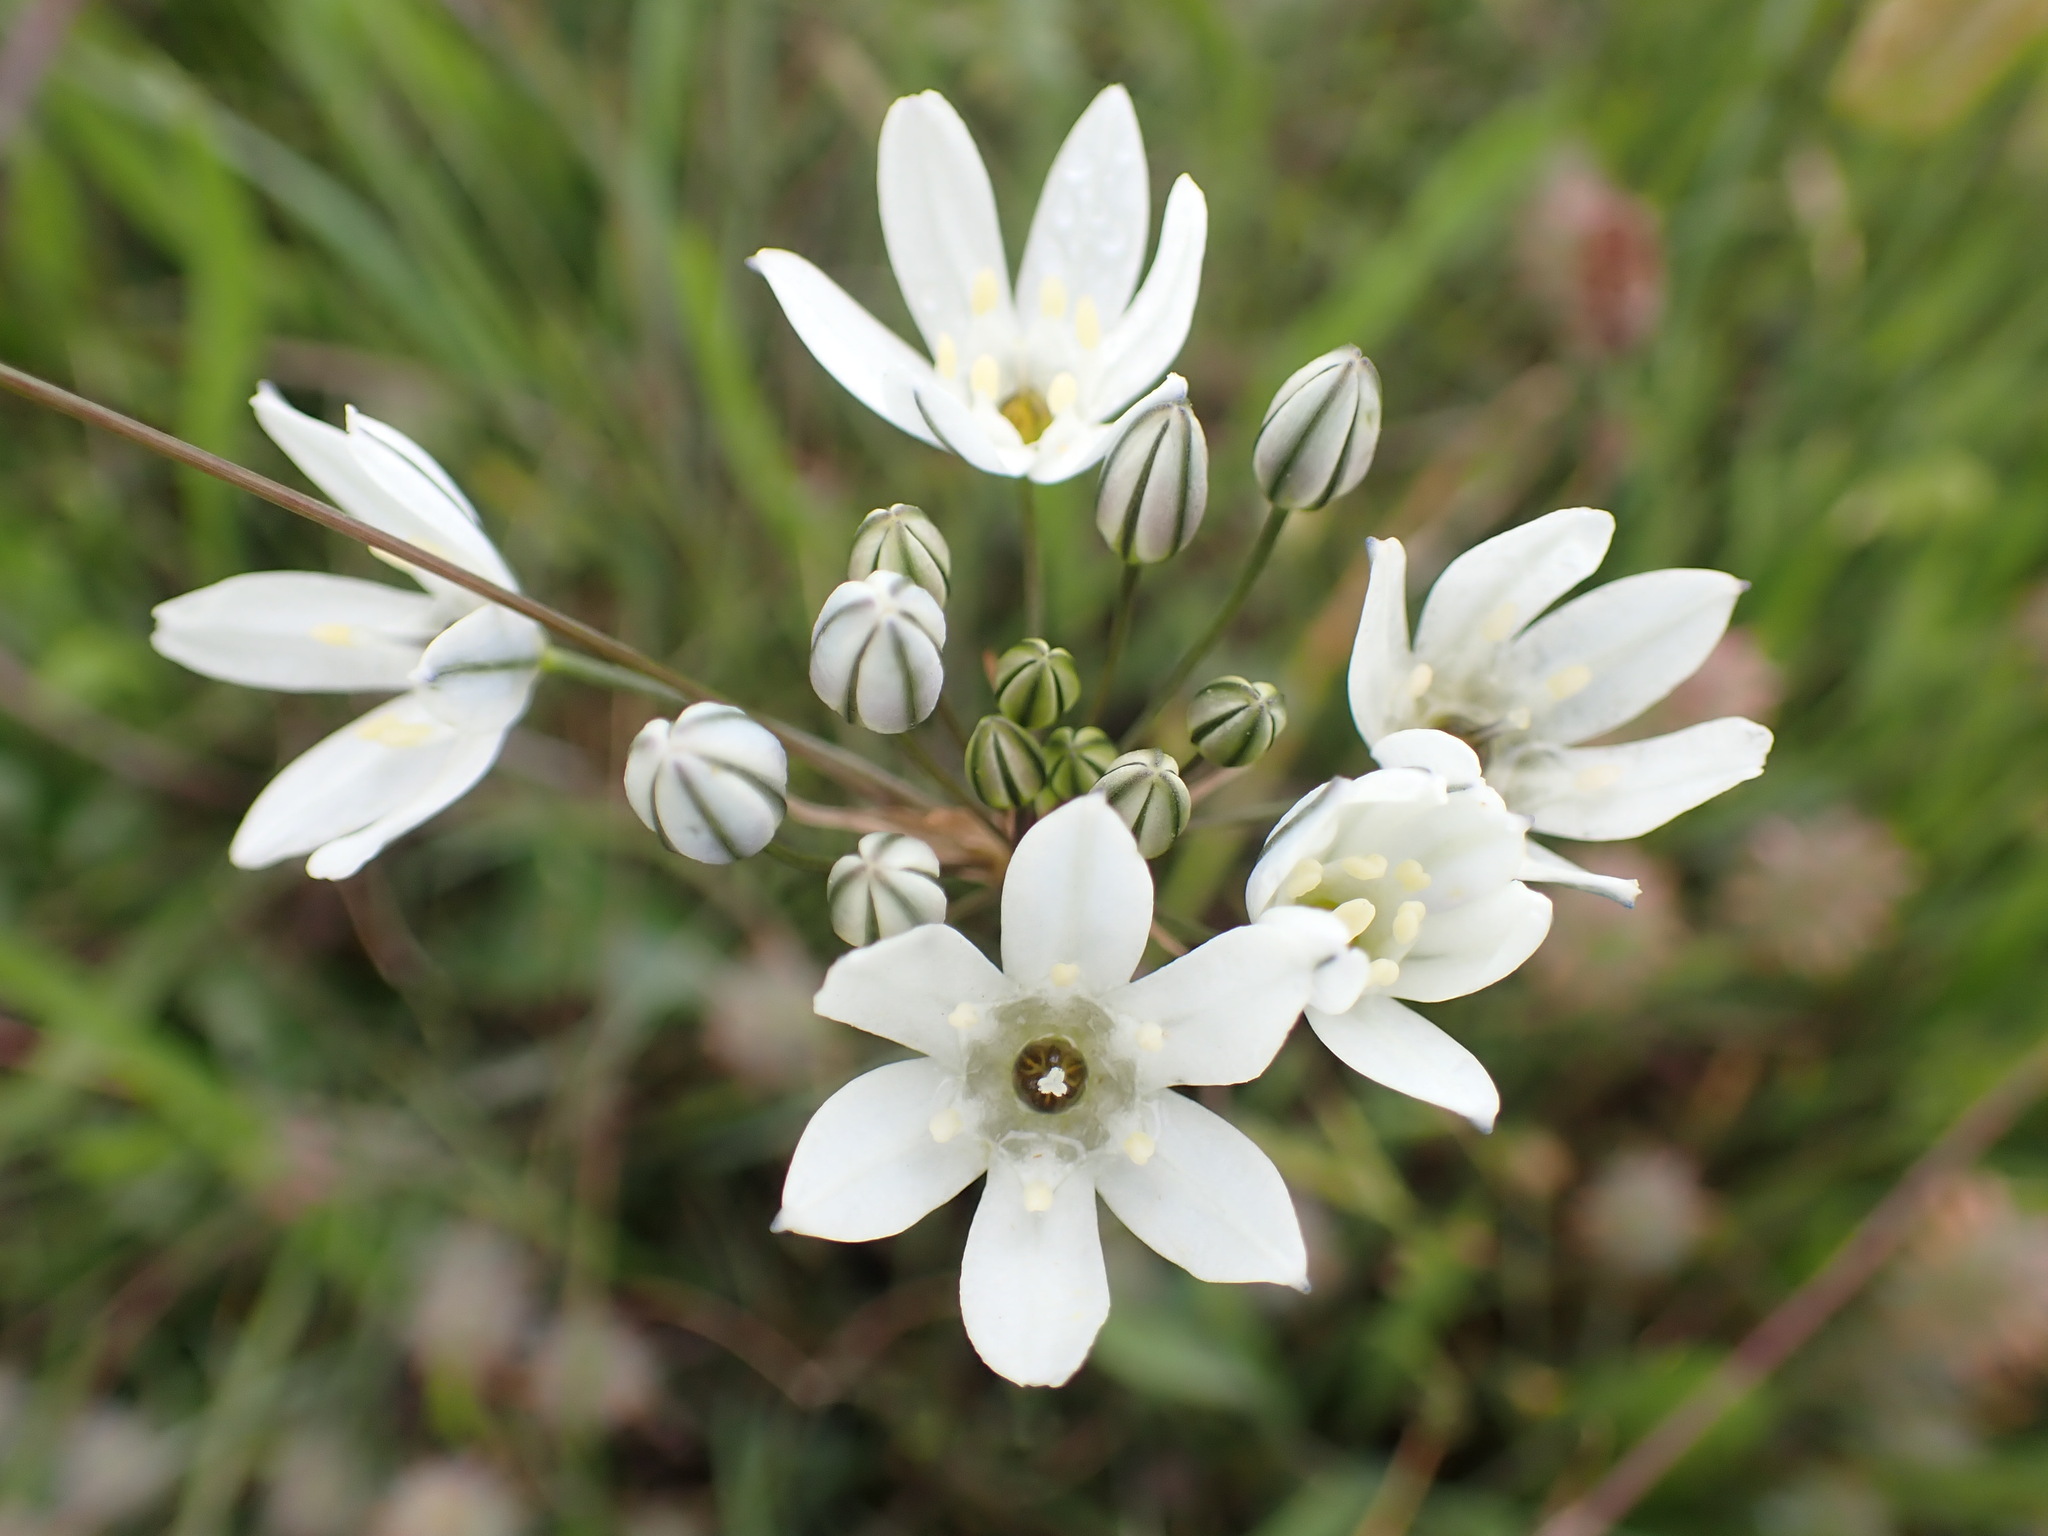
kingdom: Plantae
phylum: Tracheophyta
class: Liliopsida
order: Asparagales
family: Asparagaceae
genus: Triteleia
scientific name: Triteleia hyacinthina
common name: White brodiaea
